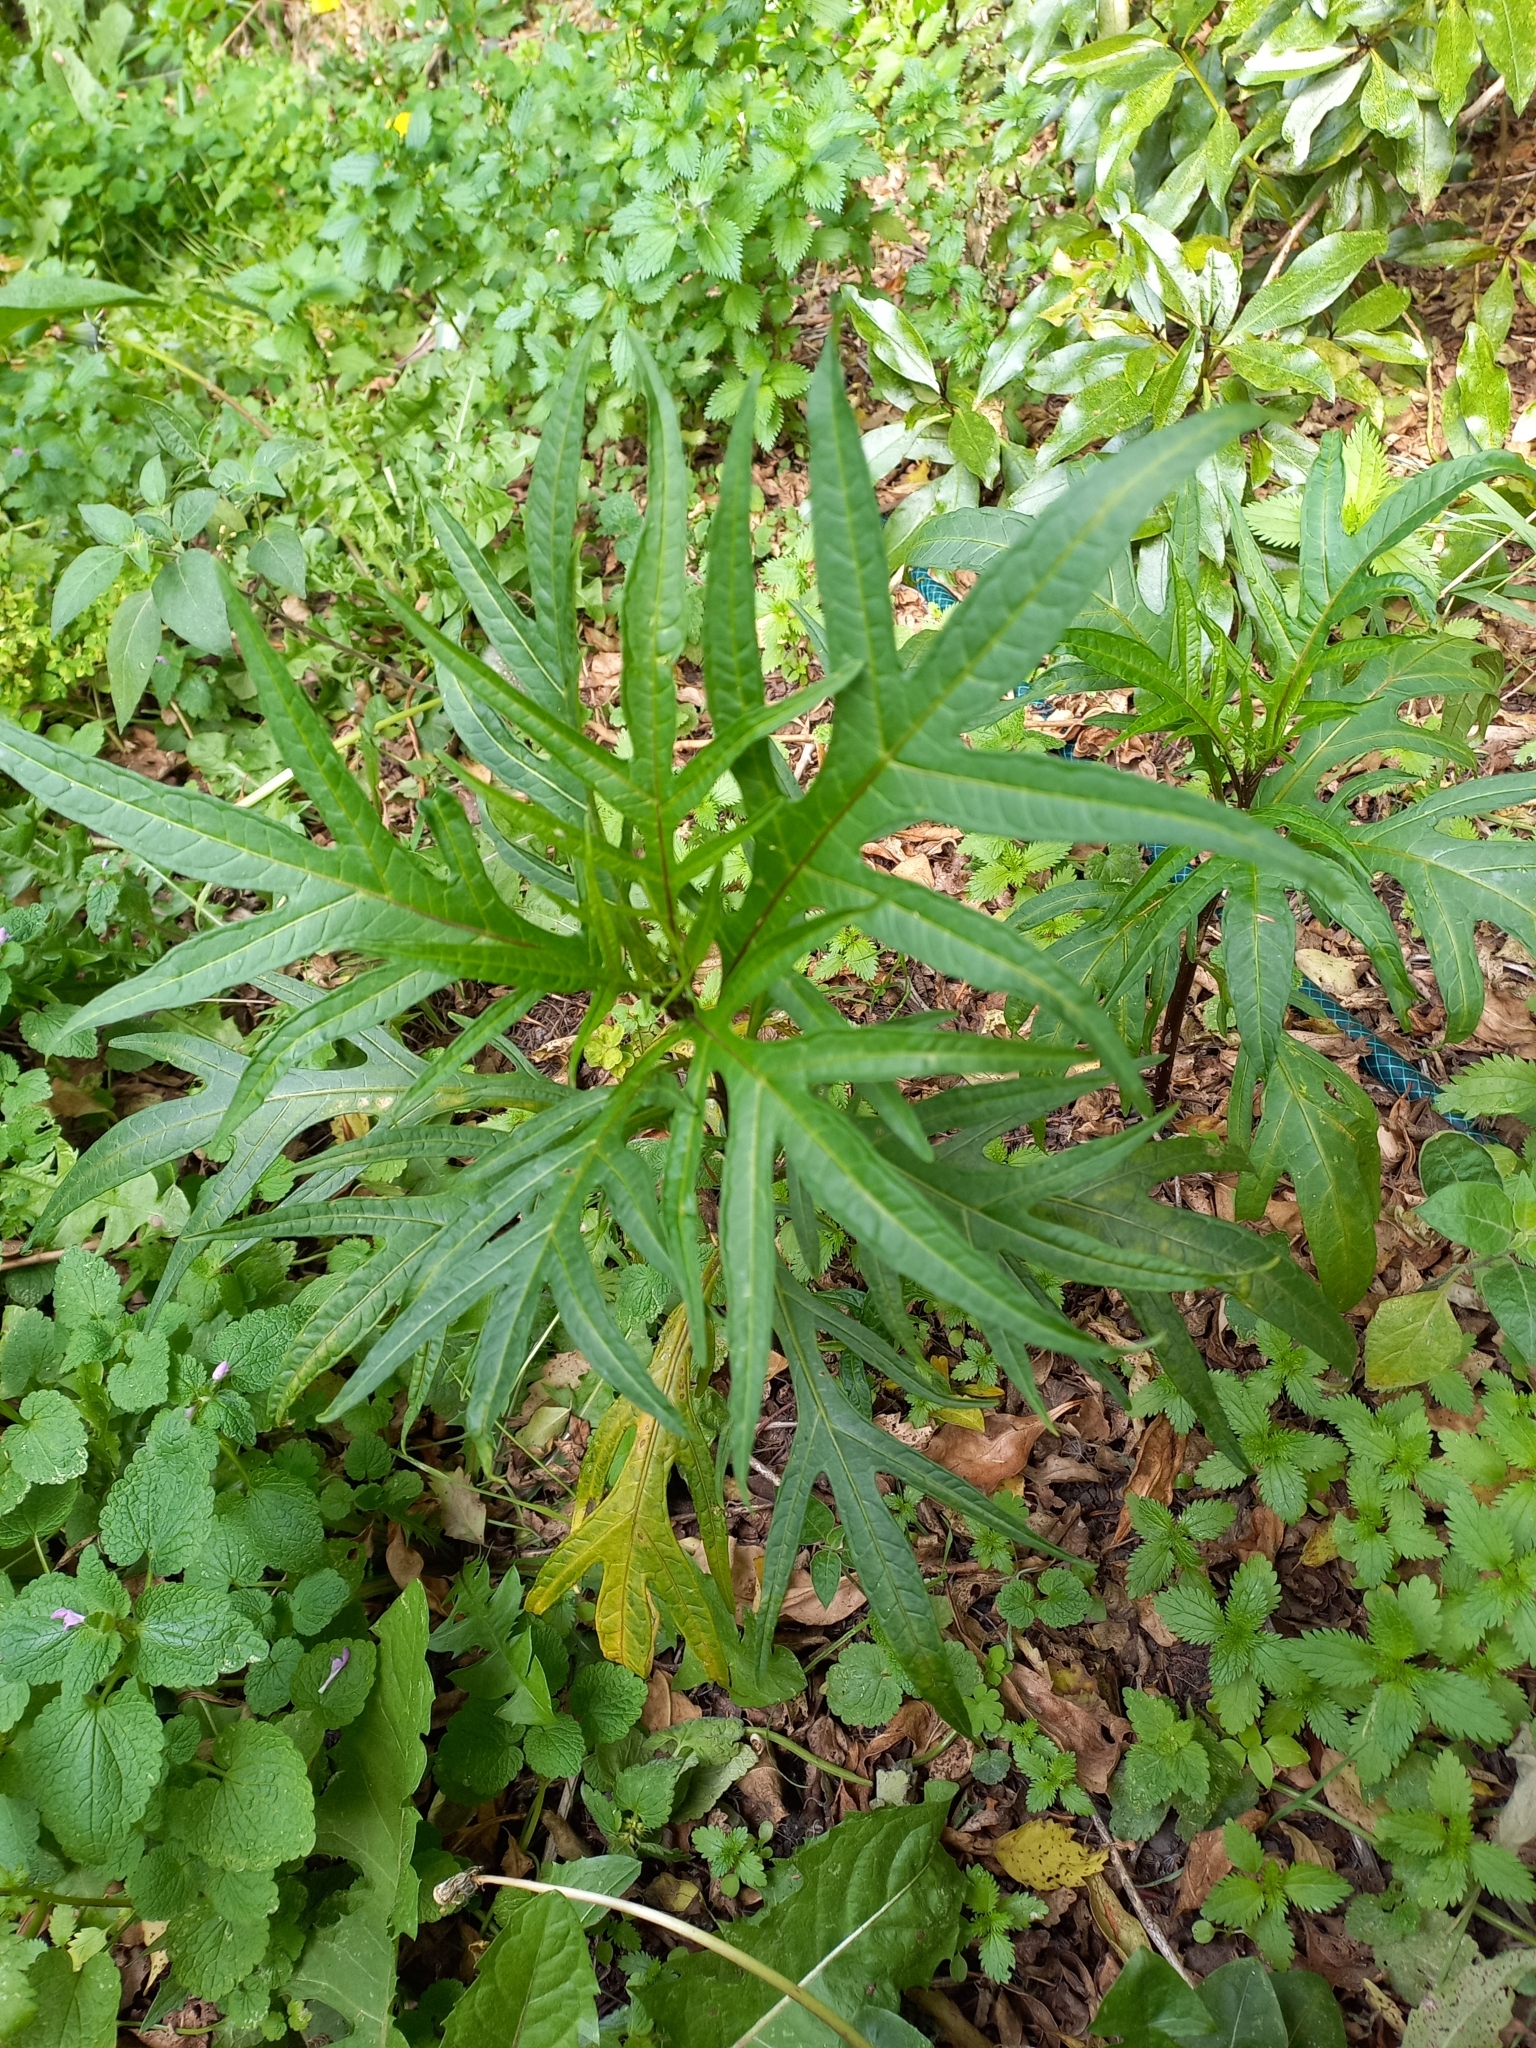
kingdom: Plantae
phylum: Tracheophyta
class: Magnoliopsida
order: Solanales
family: Solanaceae
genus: Solanum
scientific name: Solanum laciniatum
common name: Kangaroo-apple
